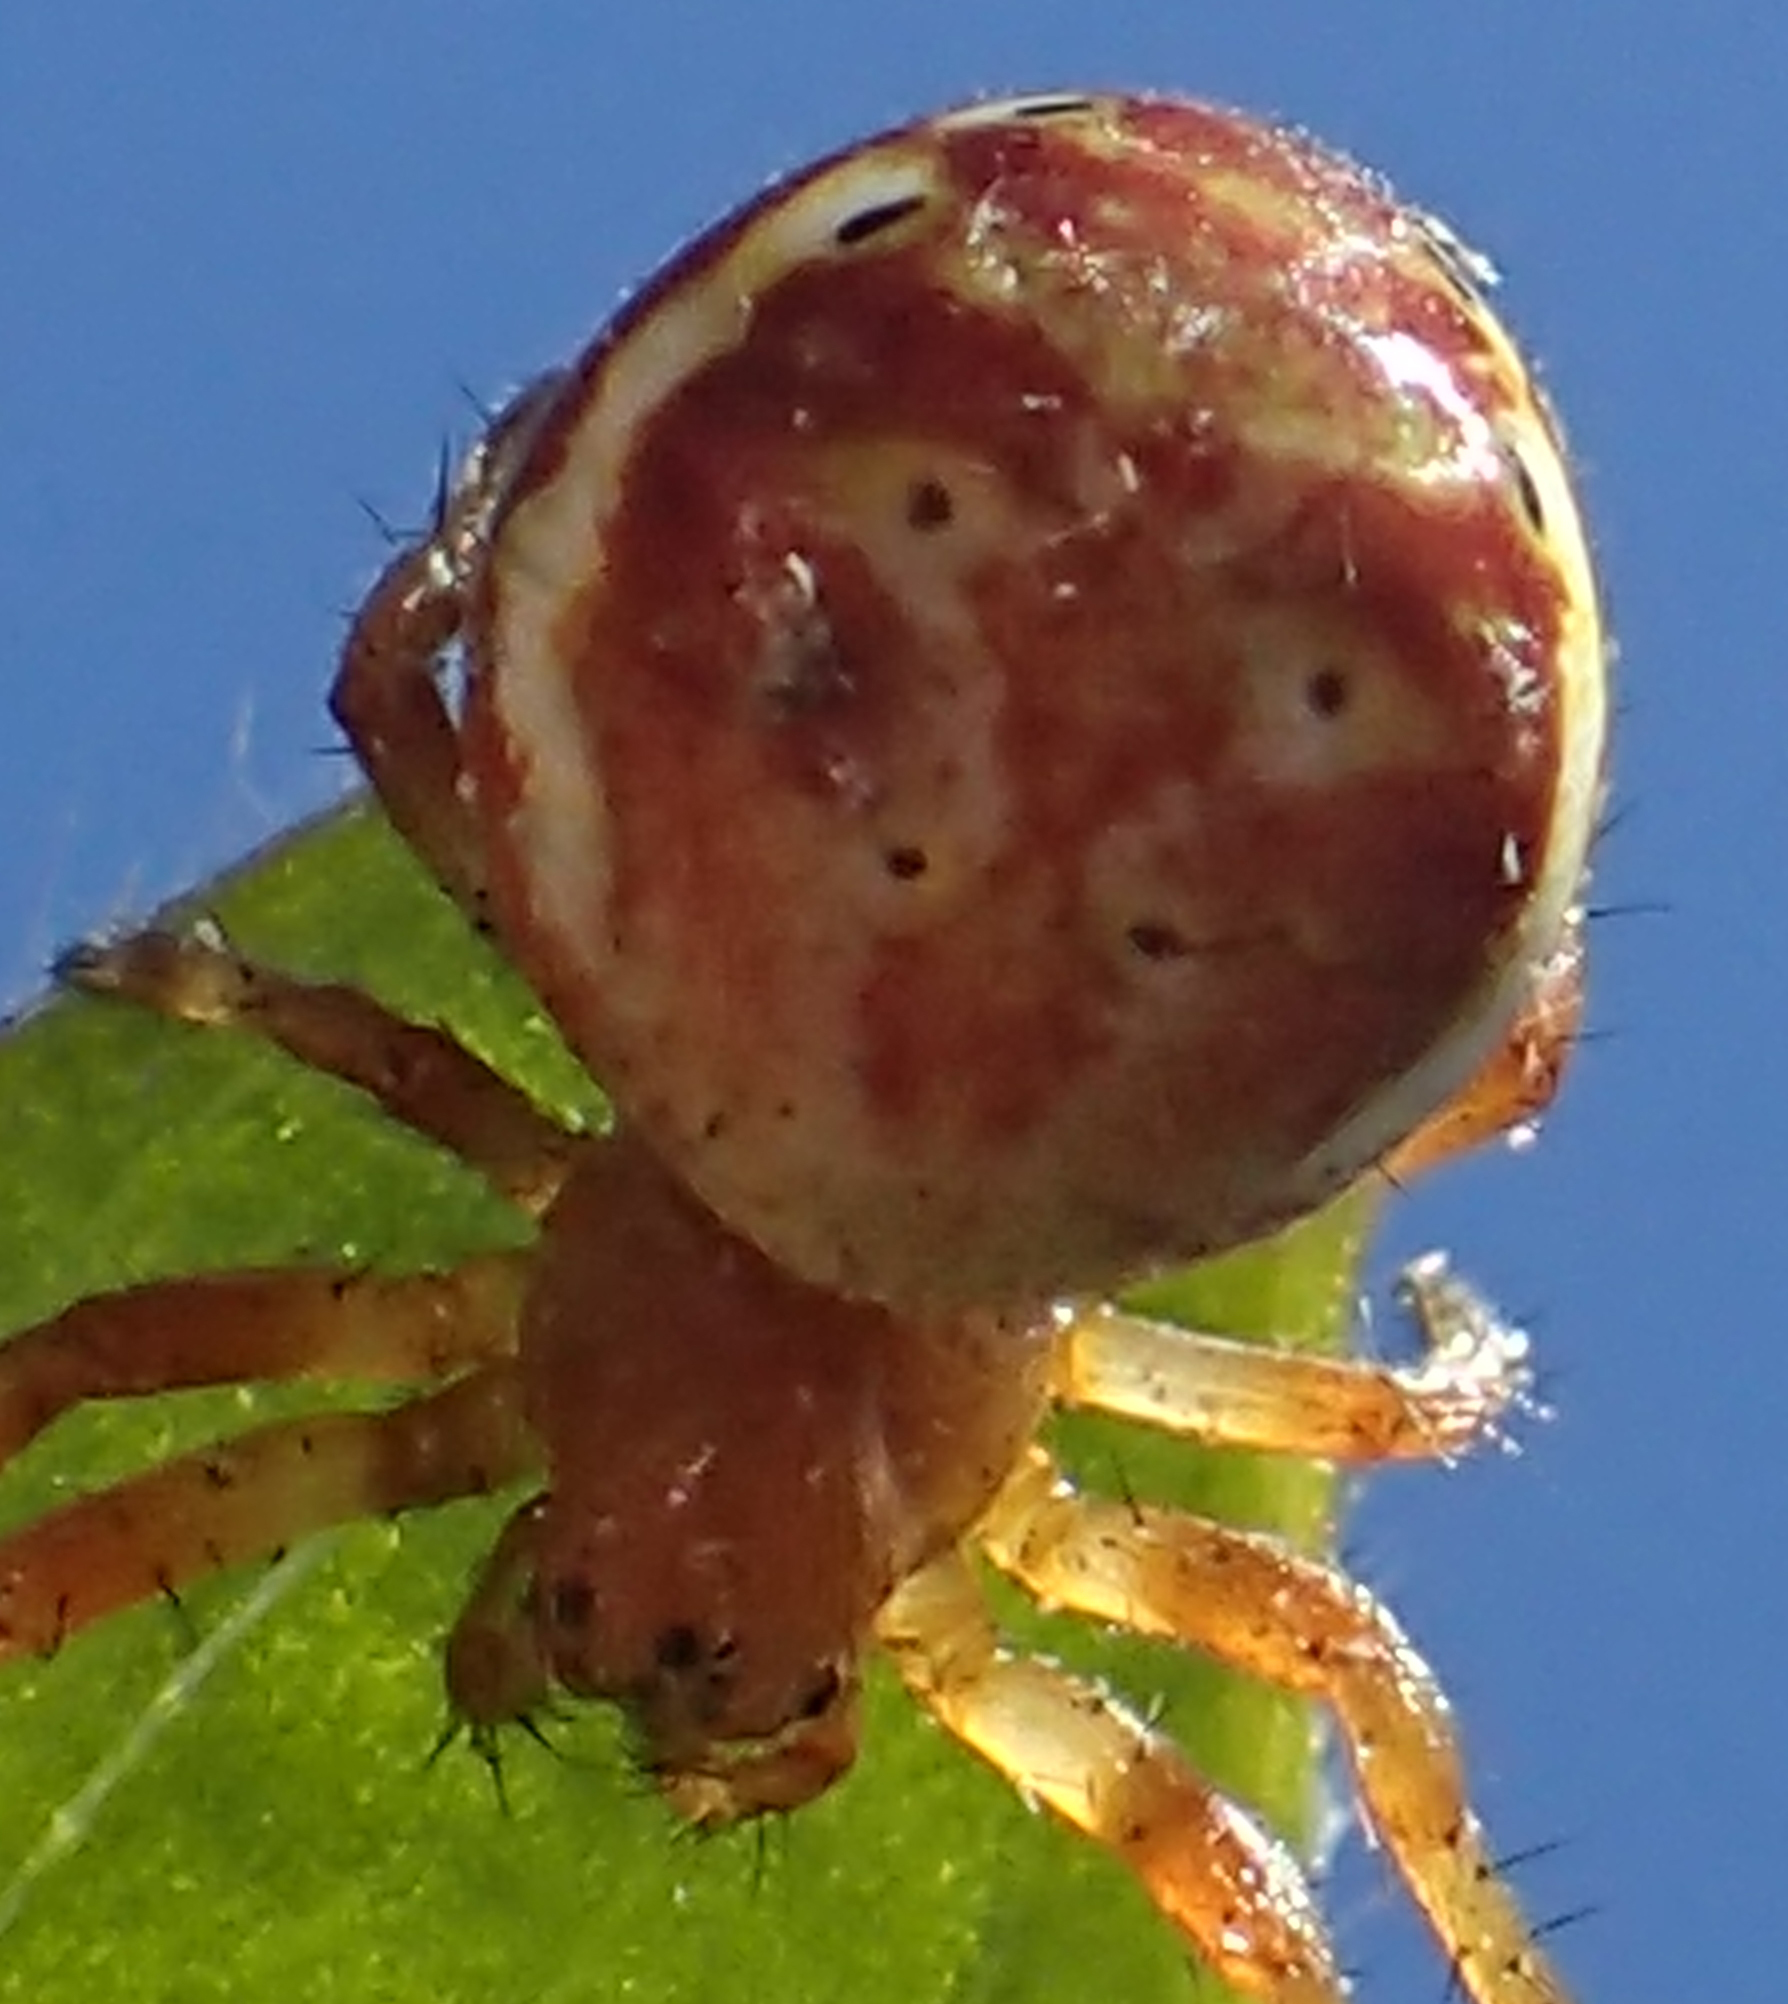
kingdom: Animalia
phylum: Arthropoda
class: Arachnida
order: Araneae
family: Araneidae
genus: Araniella
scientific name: Araniella displicata
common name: Sixspotted orb weaver
